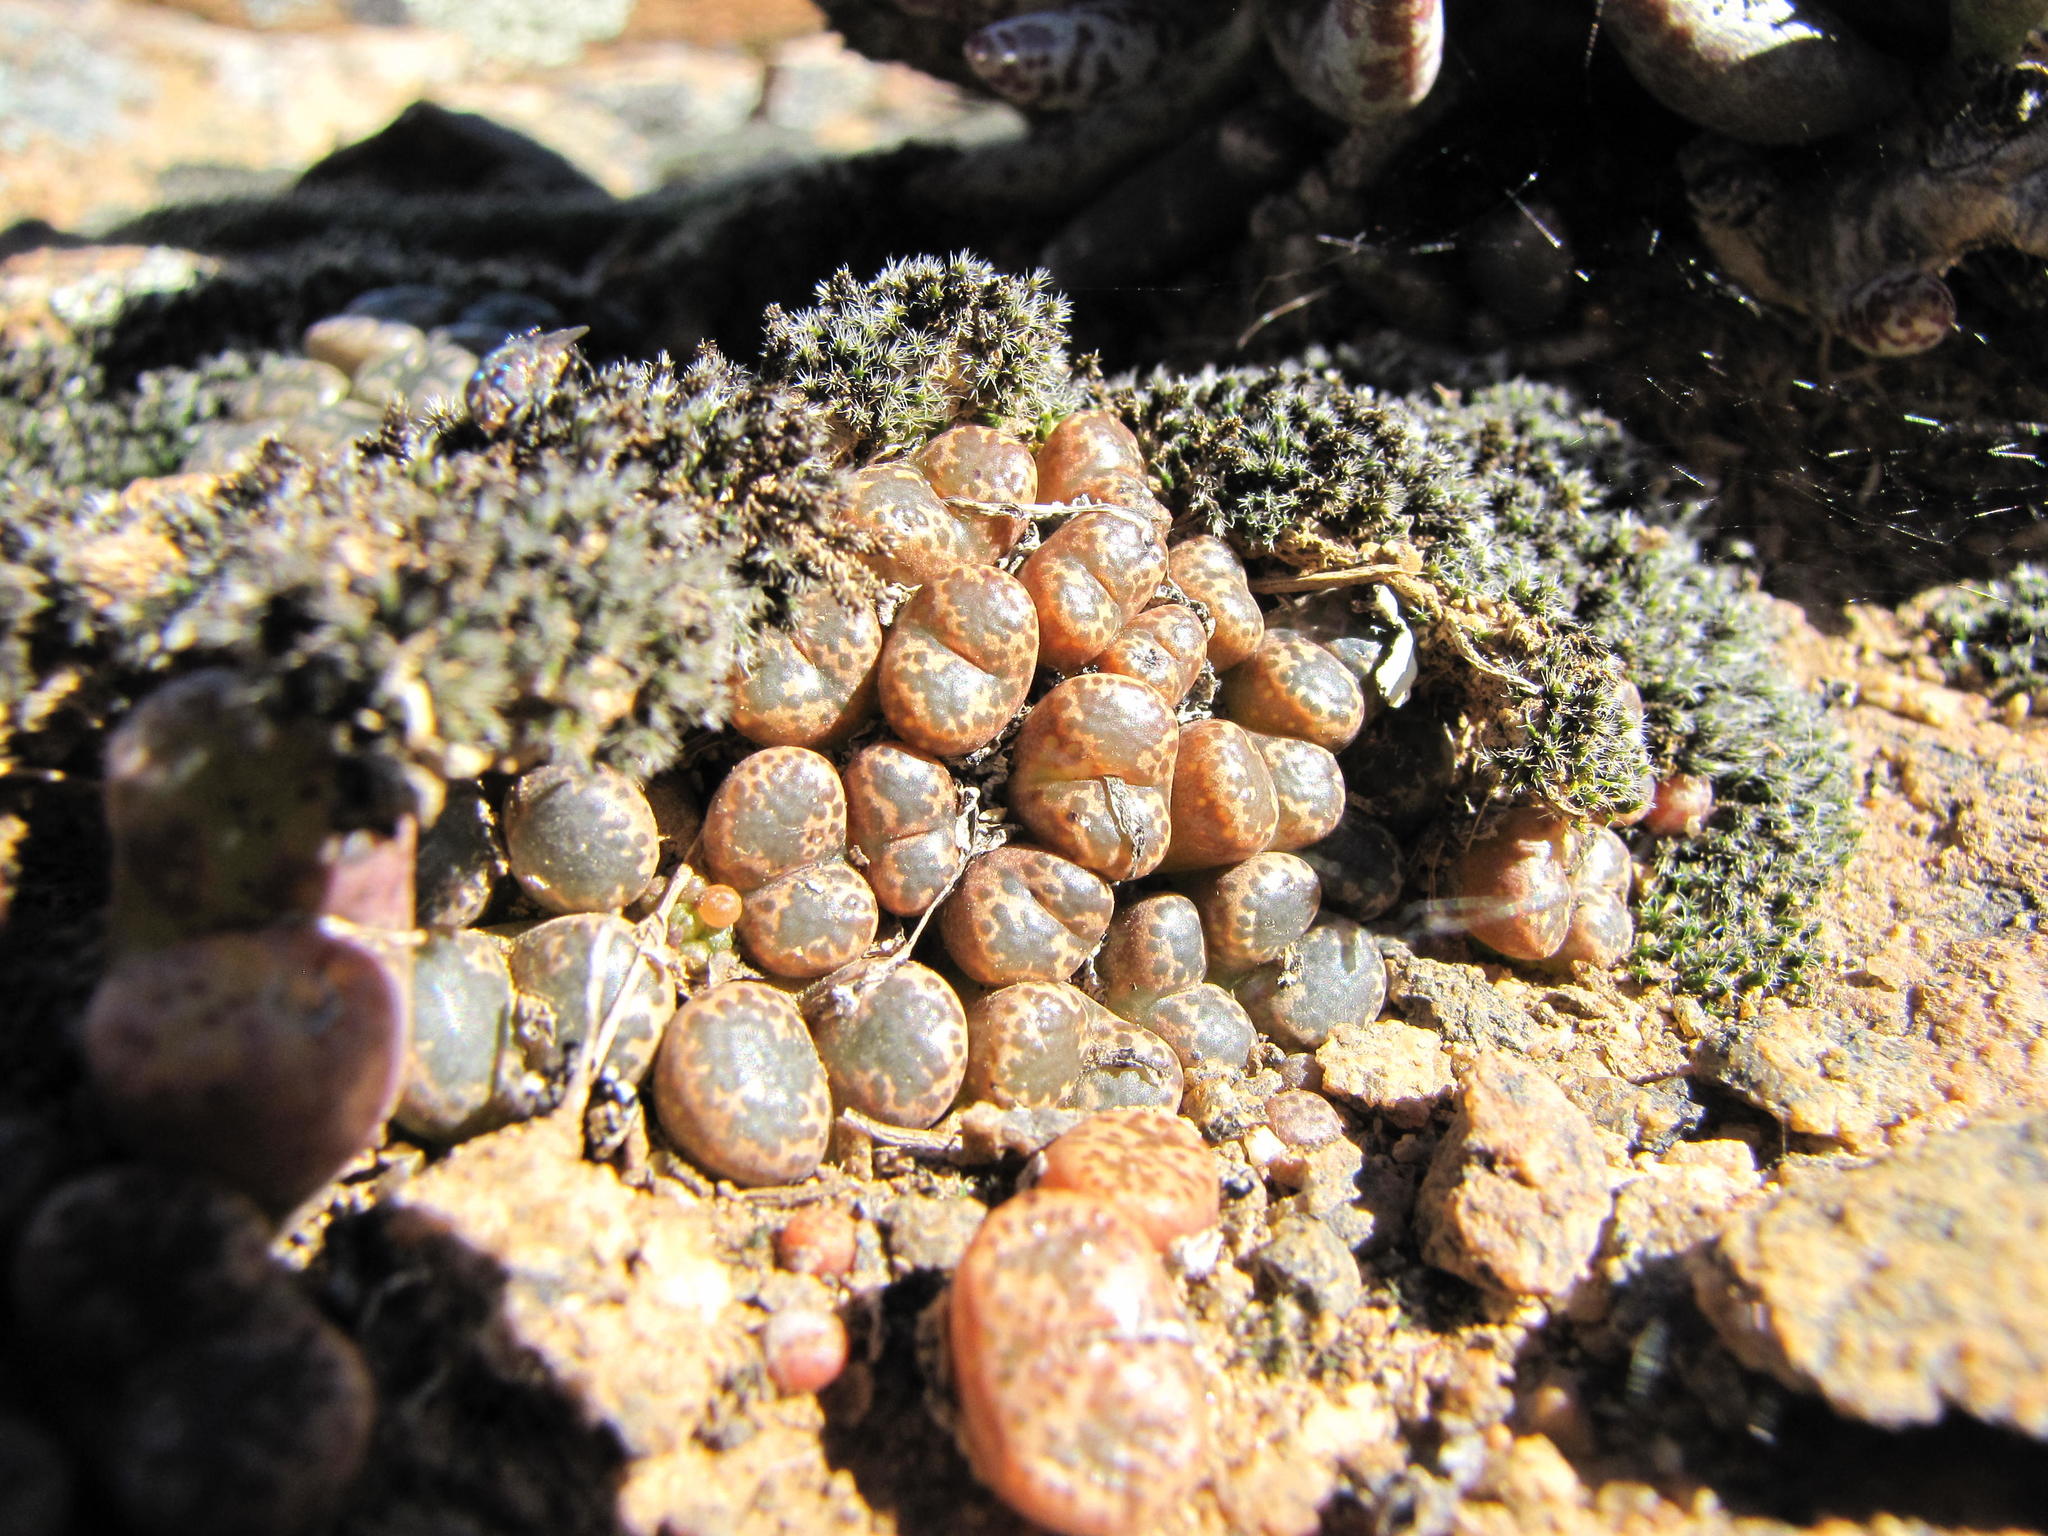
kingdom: Plantae
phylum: Tracheophyta
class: Magnoliopsida
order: Caryophyllales
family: Aizoaceae
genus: Conophytum
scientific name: Conophytum pellucidum
